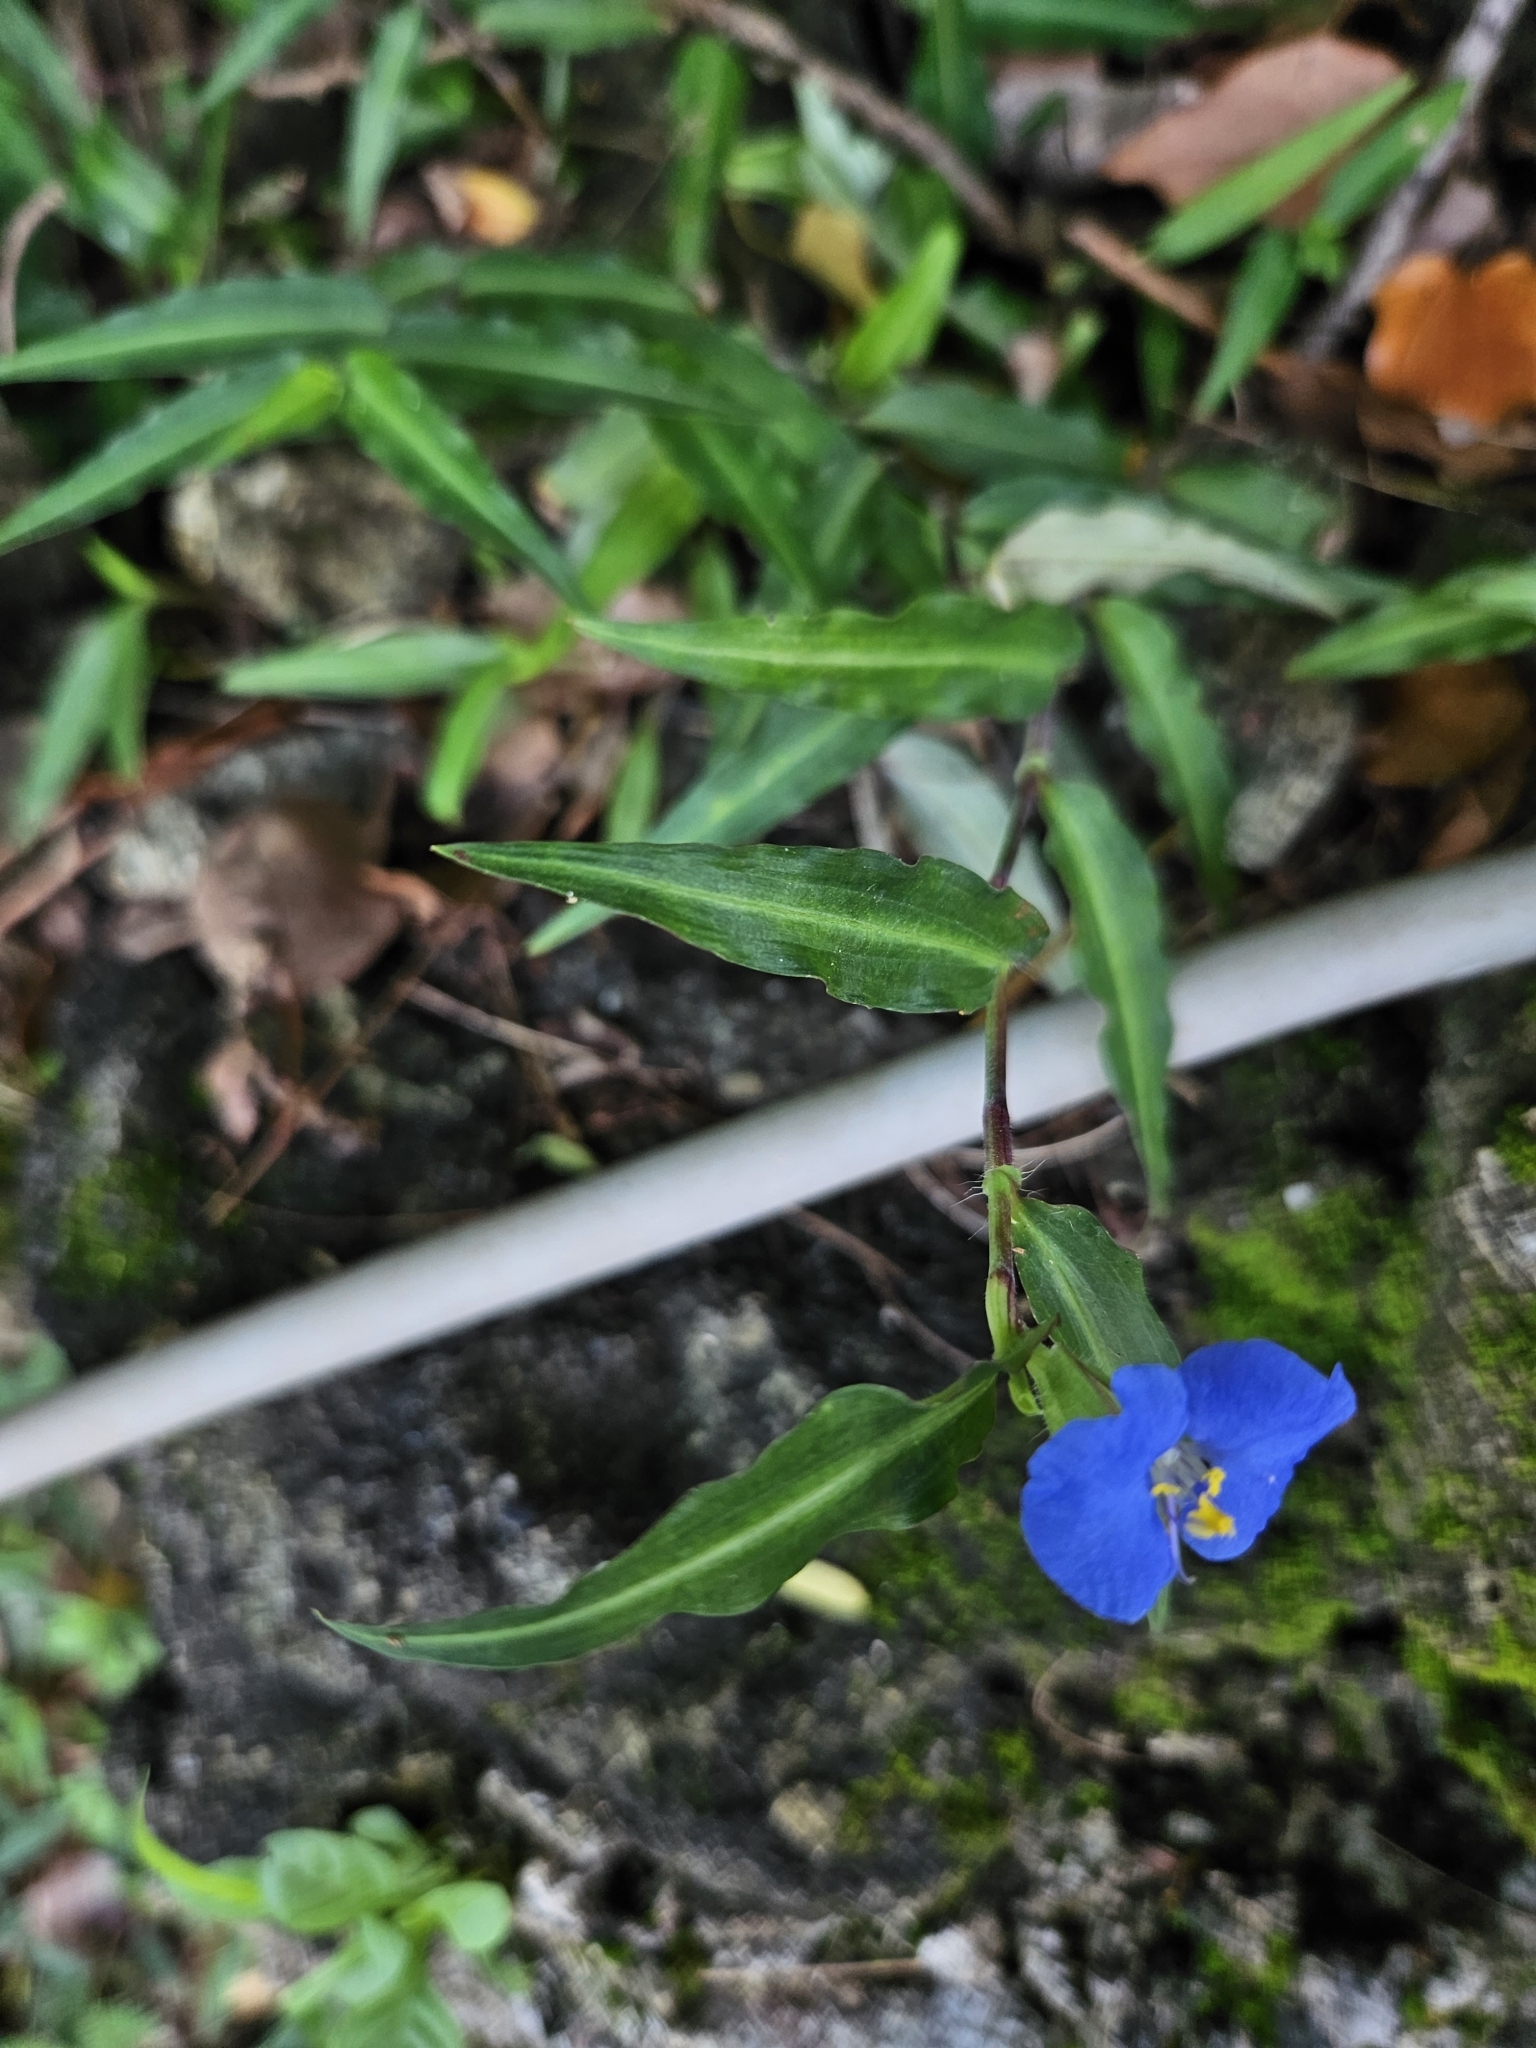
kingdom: Plantae
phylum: Tracheophyta
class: Liliopsida
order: Commelinales
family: Commelinaceae
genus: Commelina
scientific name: Commelina auriculata
